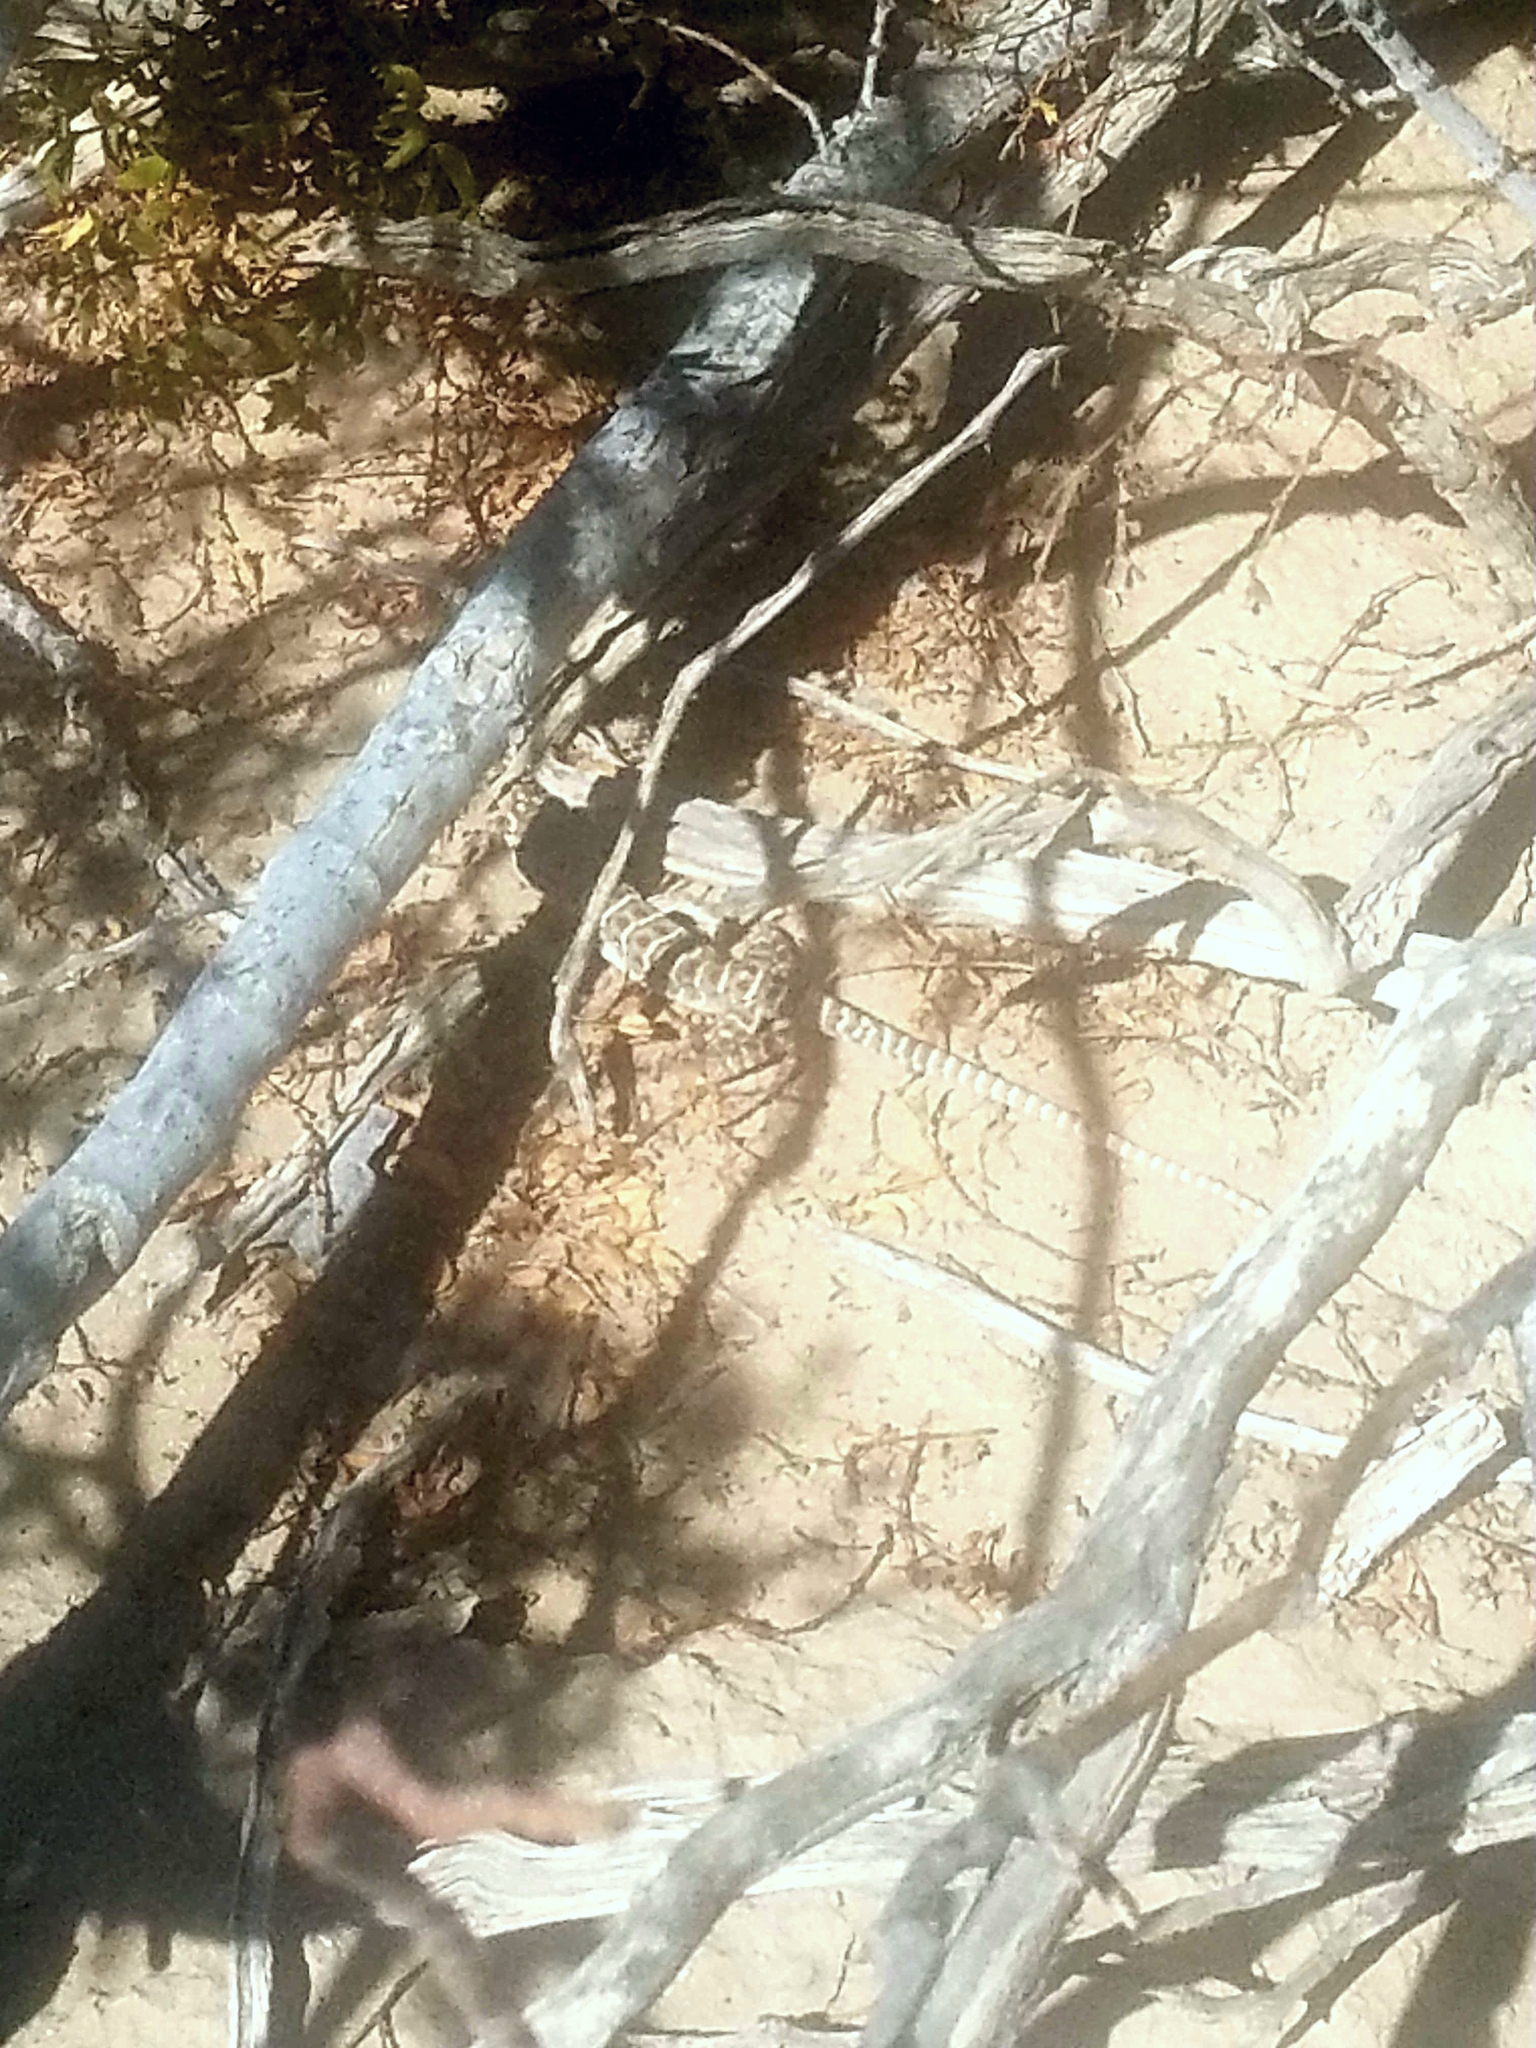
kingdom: Animalia
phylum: Chordata
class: Squamata
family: Crotaphytidae
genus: Gambelia
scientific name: Gambelia wislizenii
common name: Longnose leopard lizard
